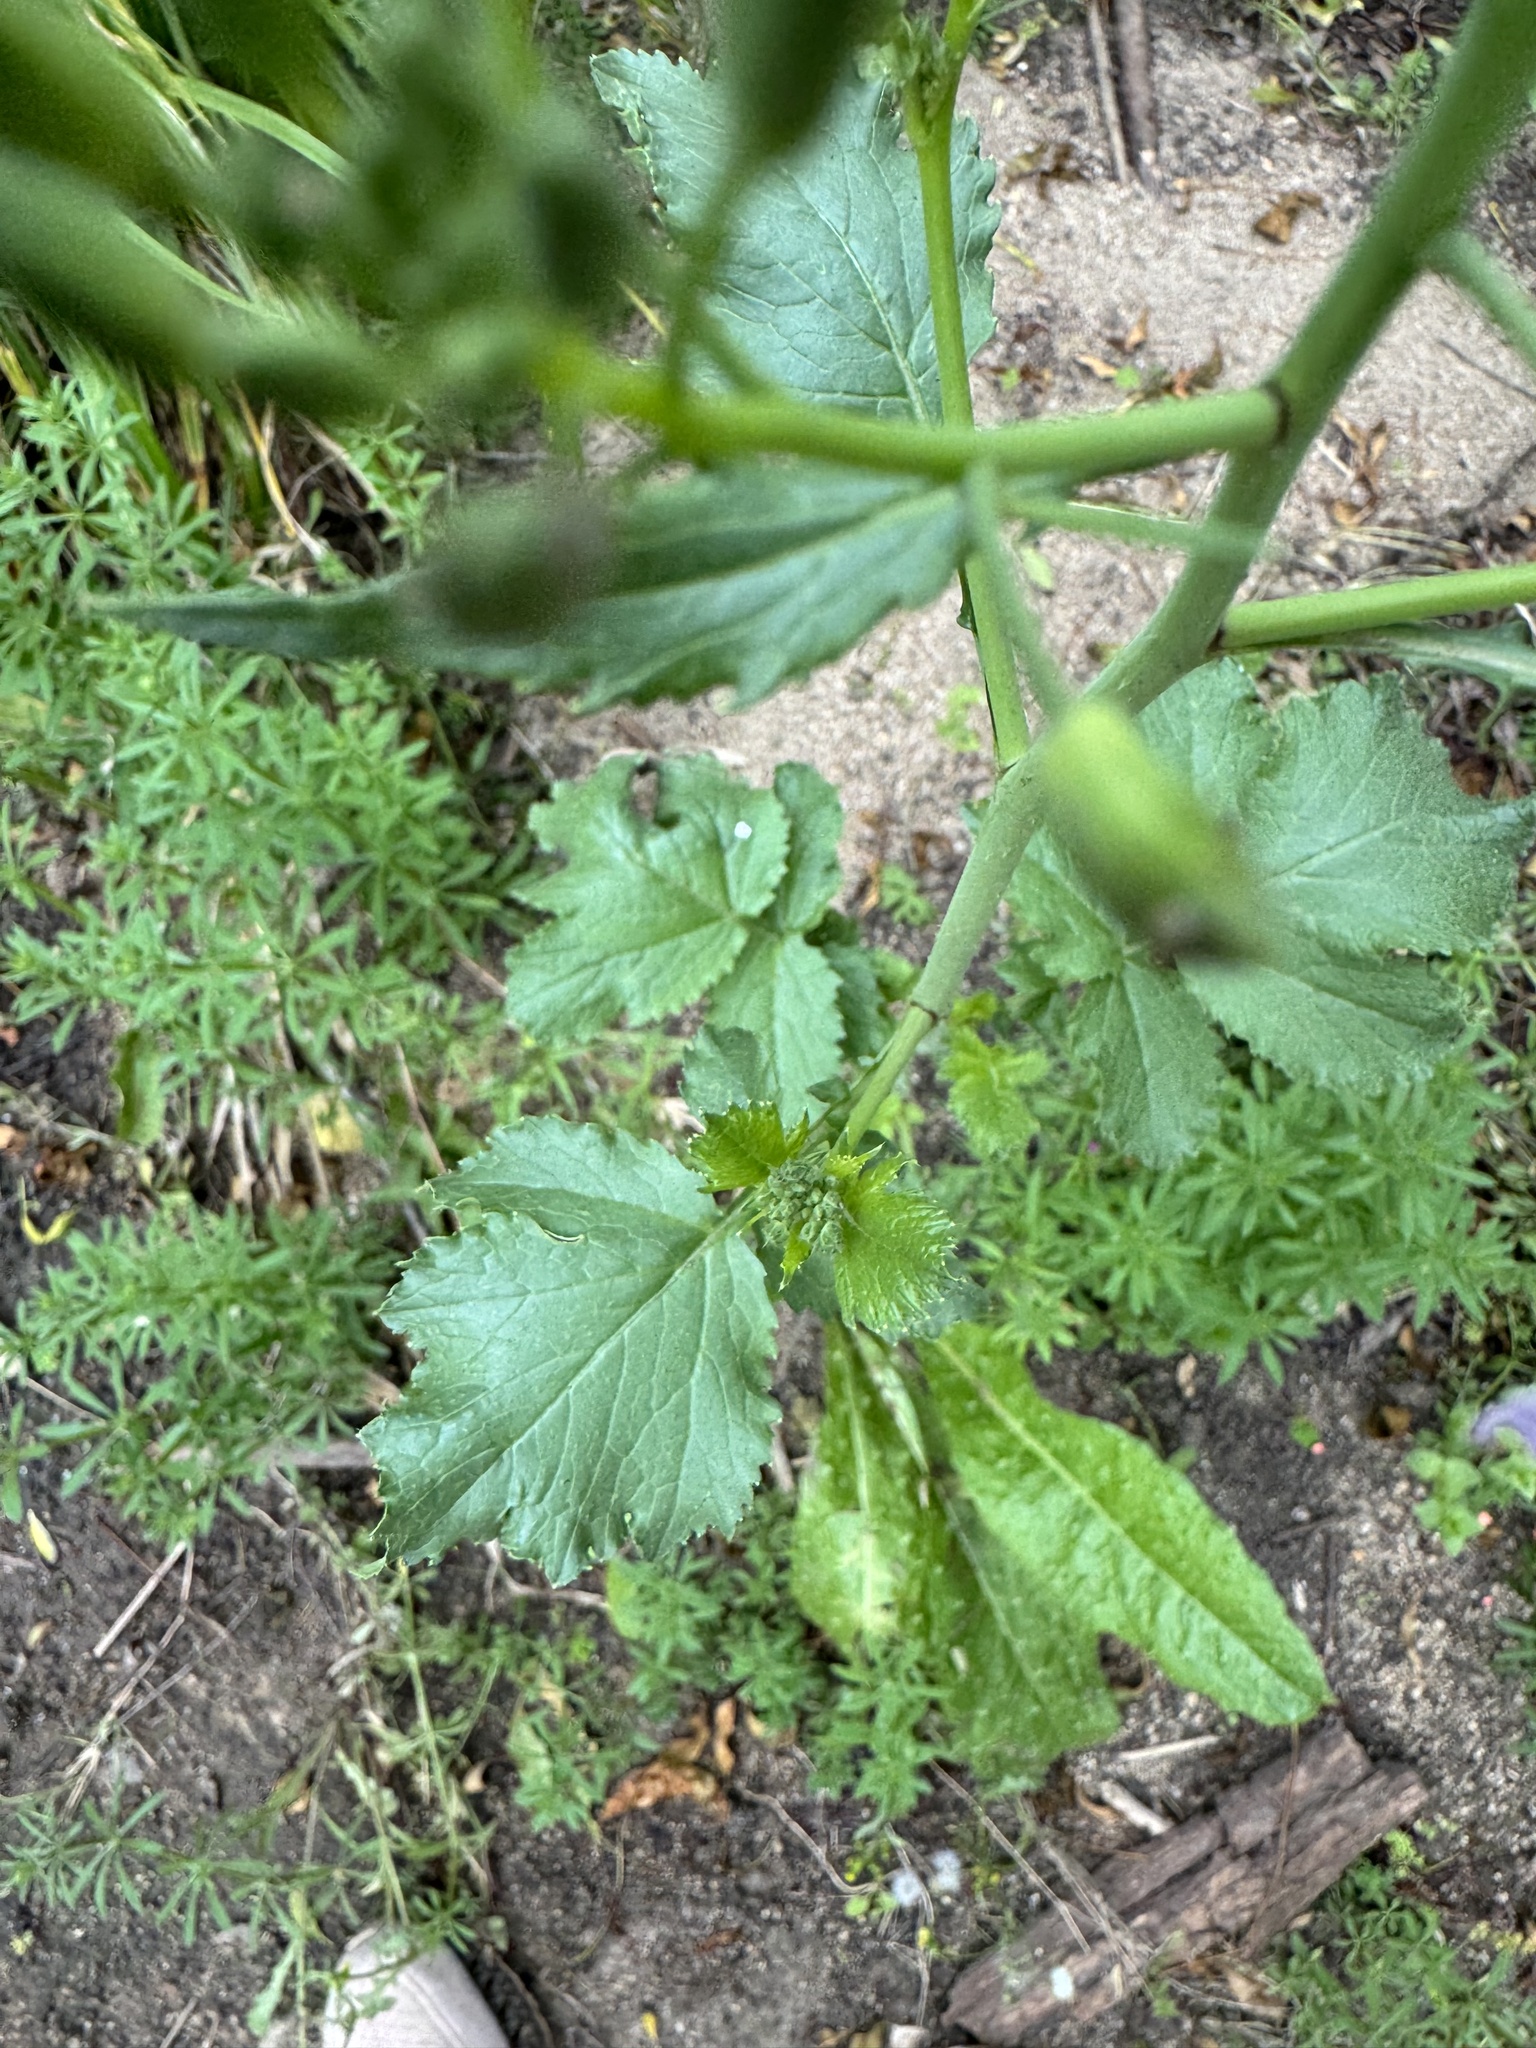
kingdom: Plantae
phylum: Tracheophyta
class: Magnoliopsida
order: Brassicales
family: Brassicaceae
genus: Raphanus
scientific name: Raphanus sativus
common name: Cultivated radish
